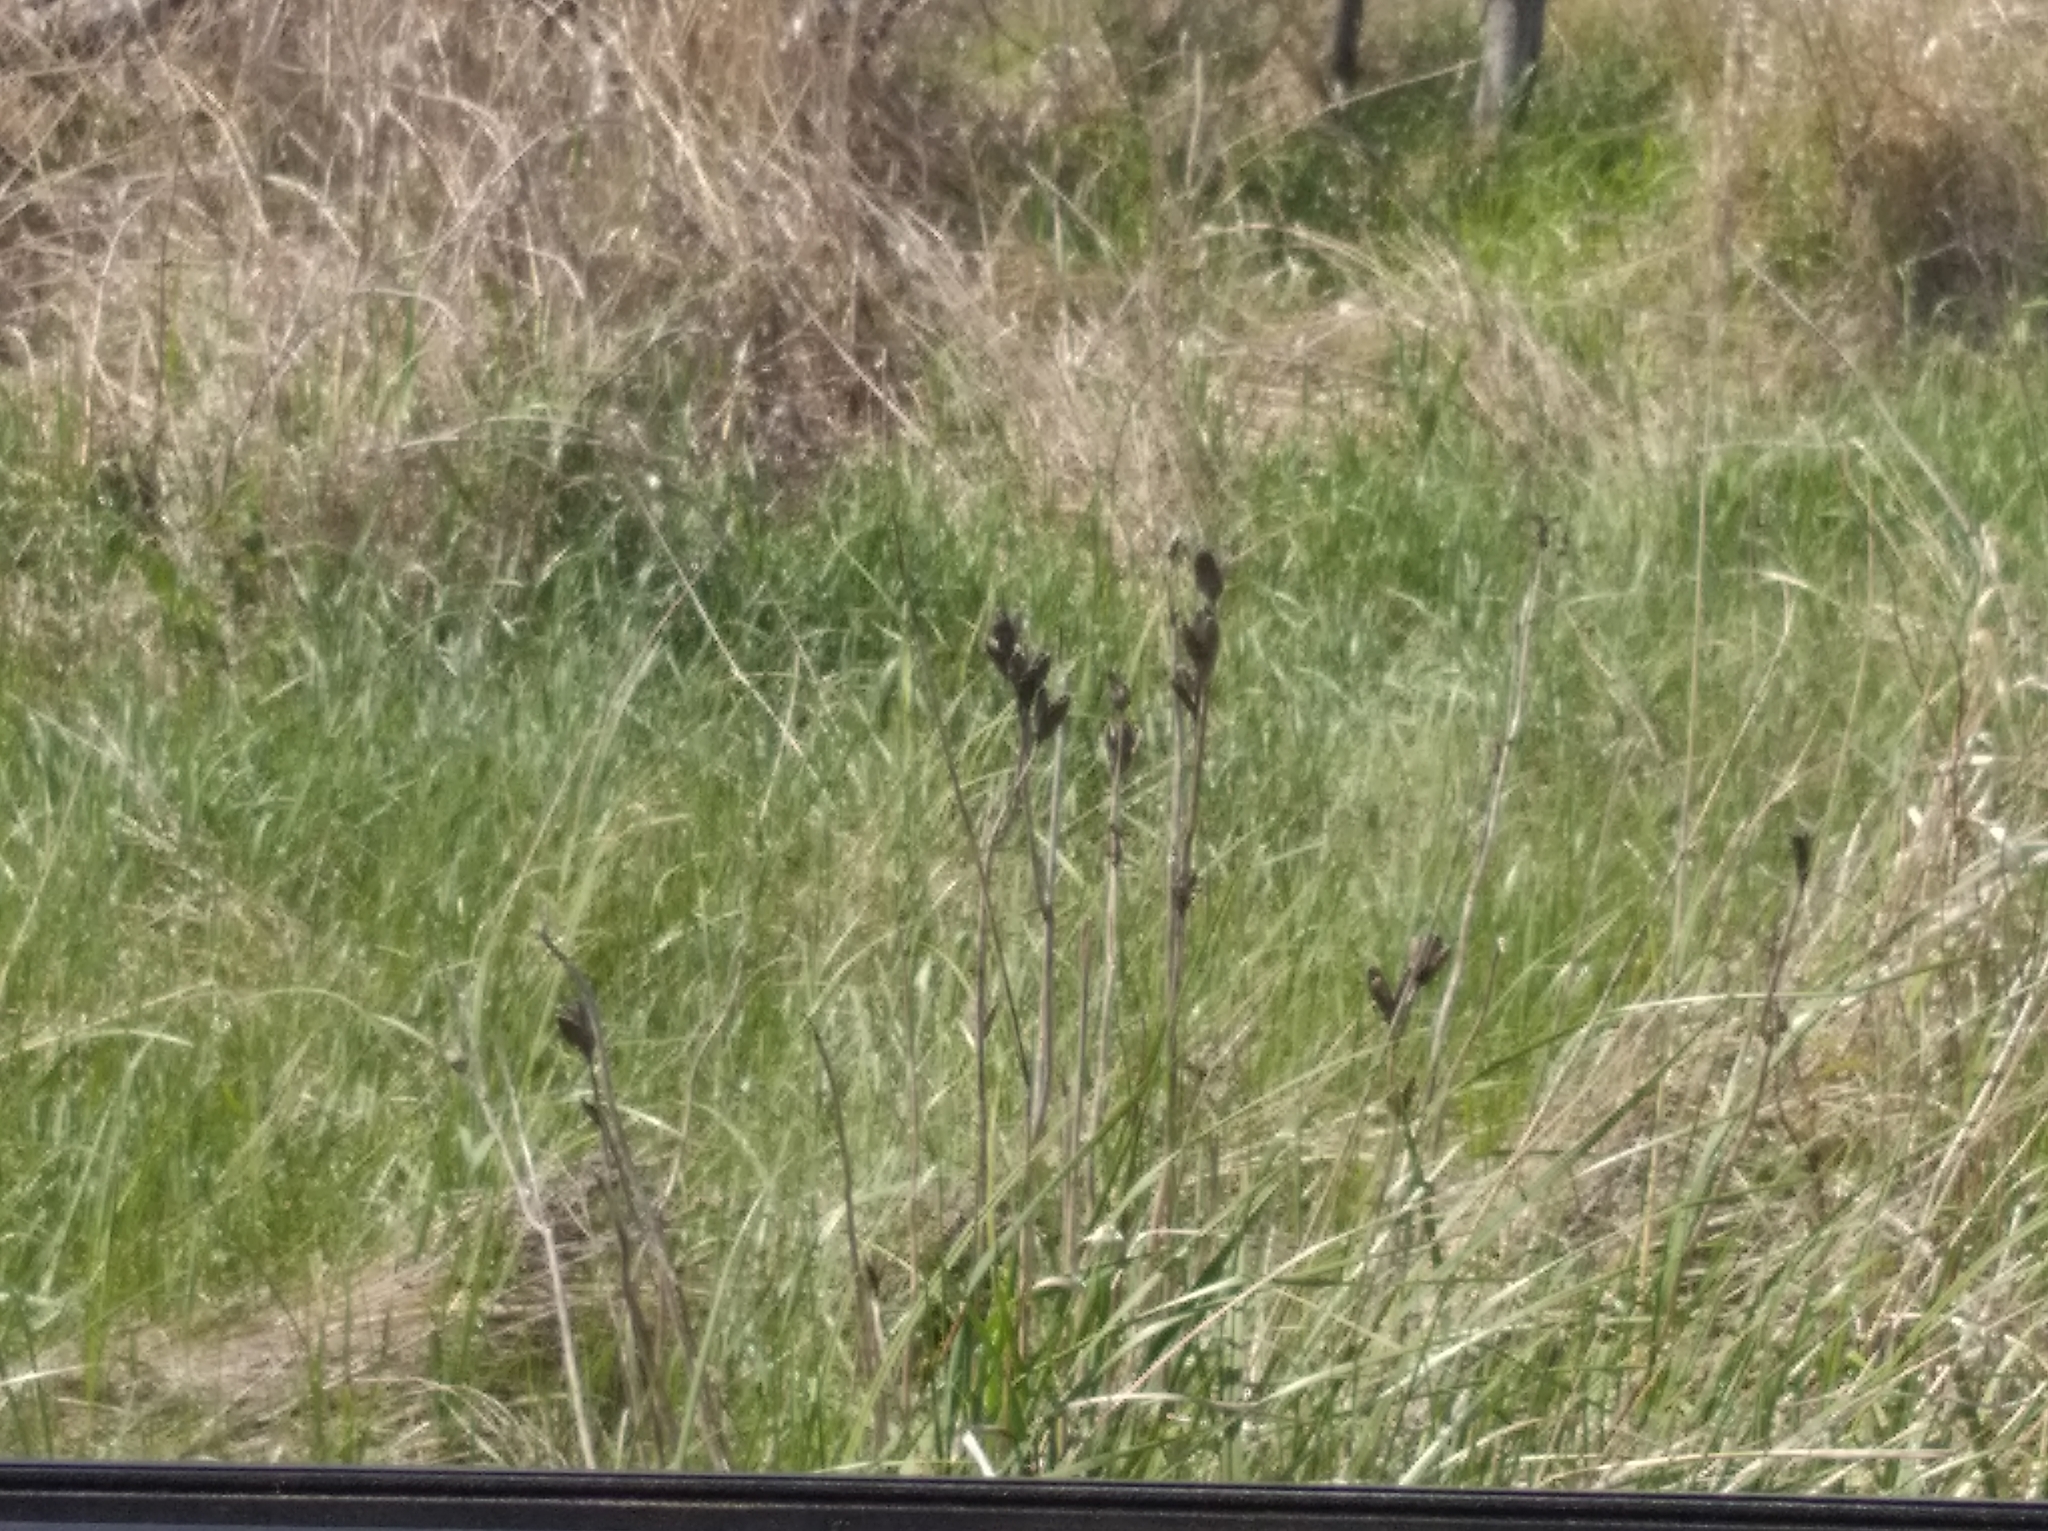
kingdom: Plantae
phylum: Tracheophyta
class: Liliopsida
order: Asparagales
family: Iridaceae
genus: Iris
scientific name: Iris sibirica
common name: Siberian iris
